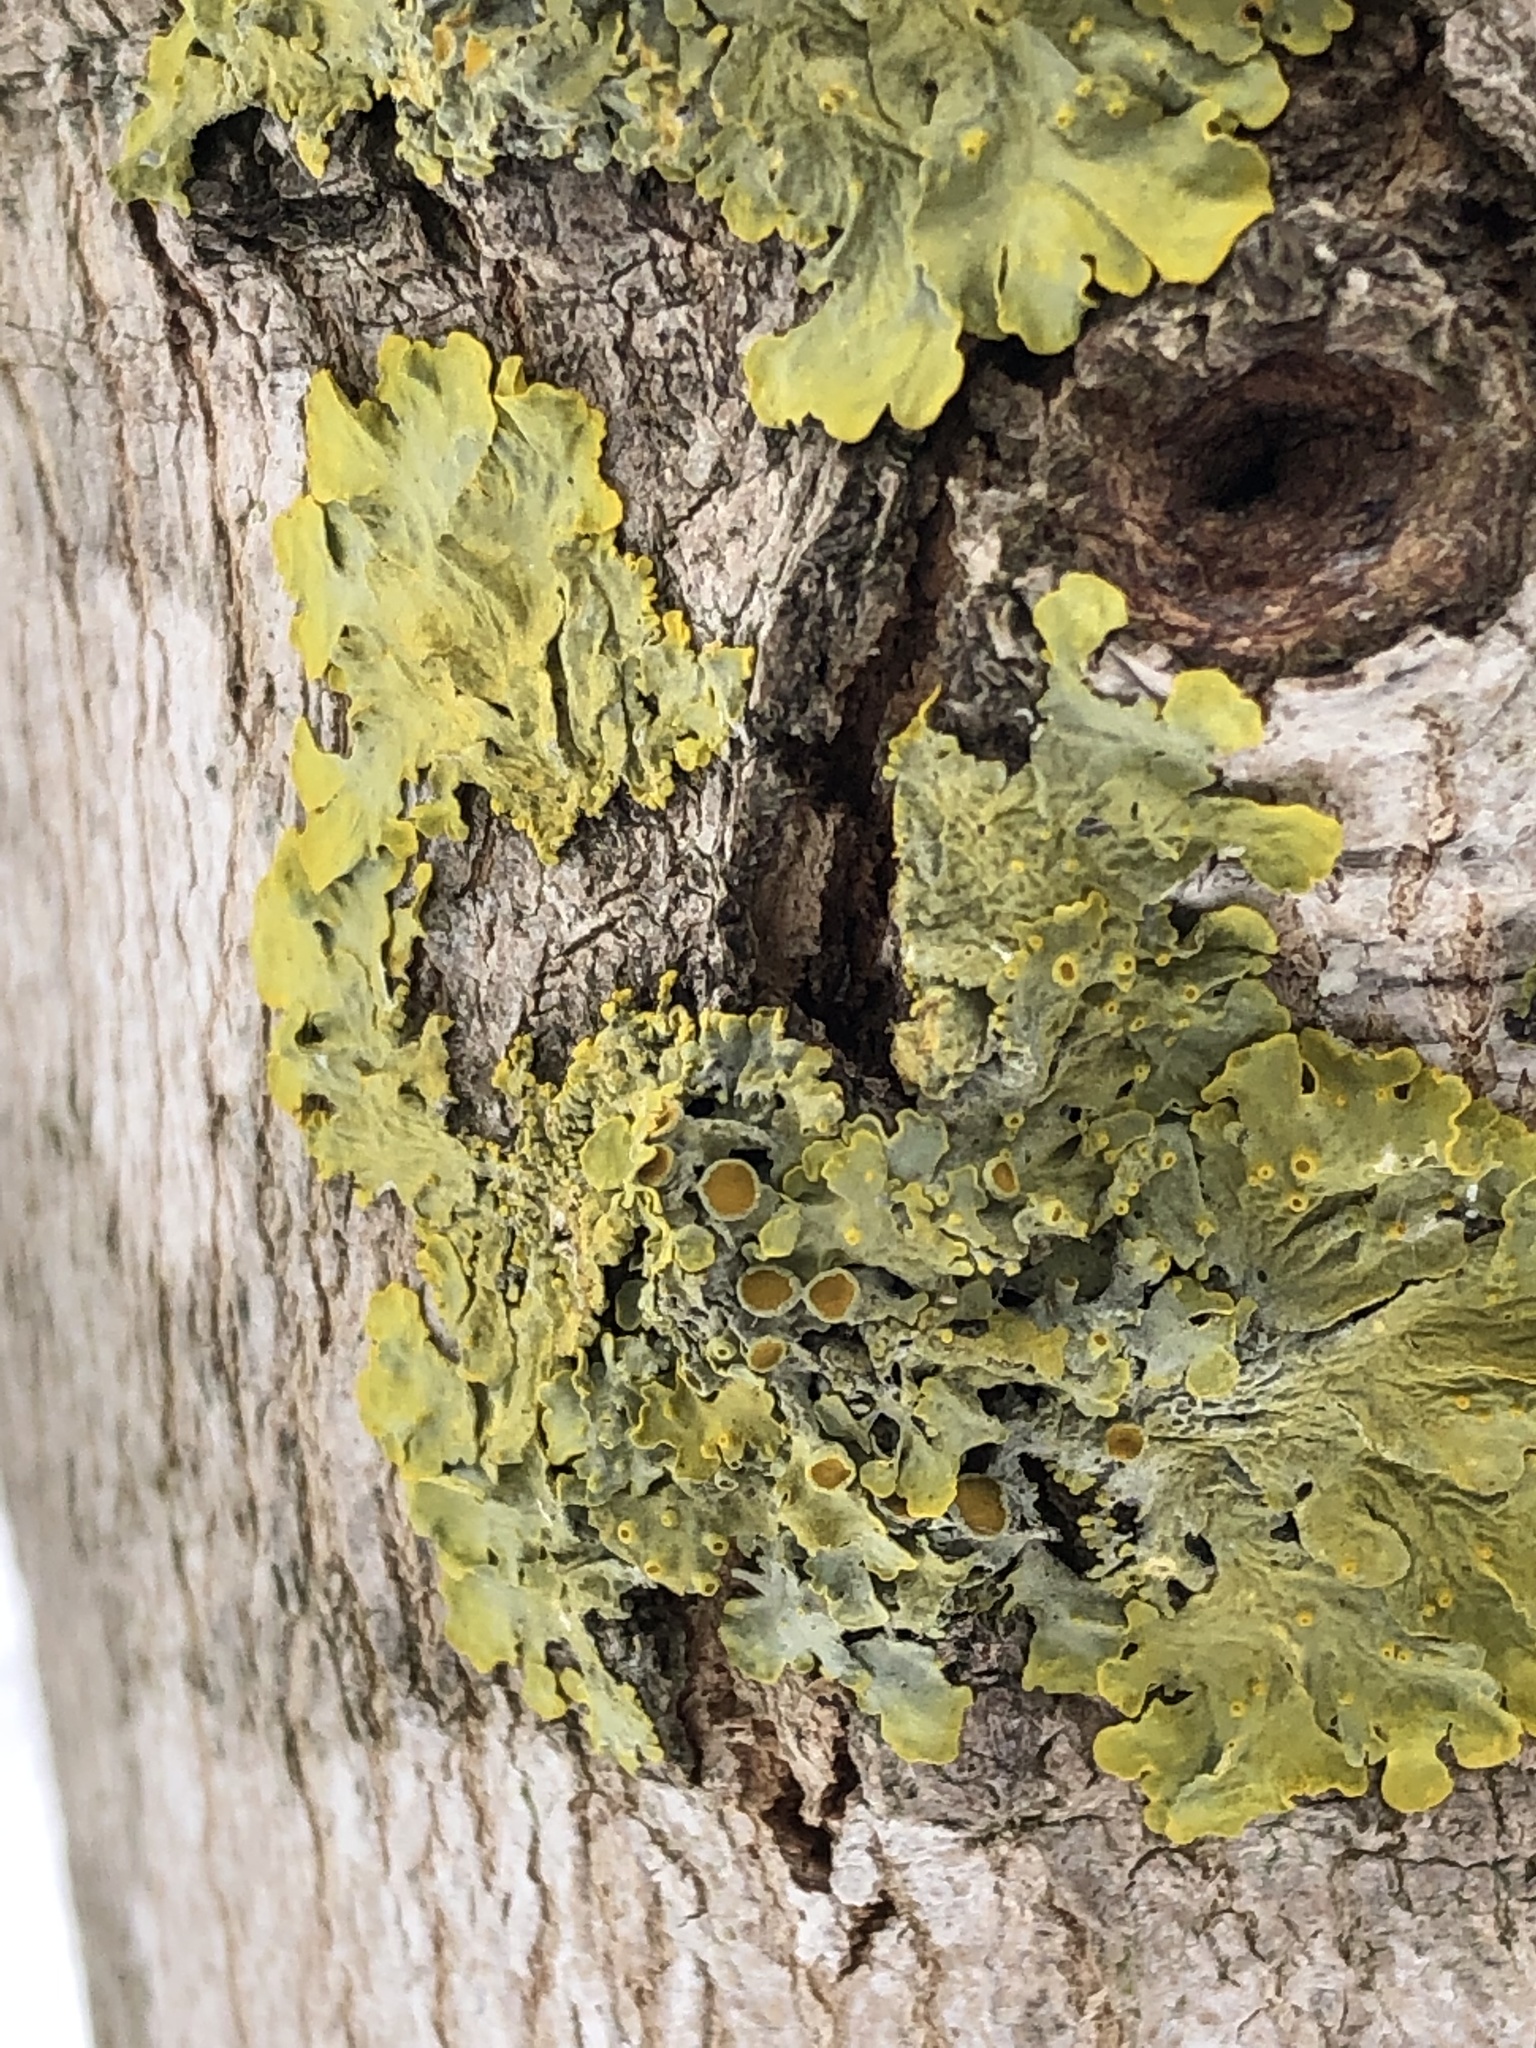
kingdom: Fungi
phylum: Ascomycota
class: Lecanoromycetes
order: Teloschistales
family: Teloschistaceae
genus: Xanthoria
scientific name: Xanthoria parietina
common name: Common orange lichen
